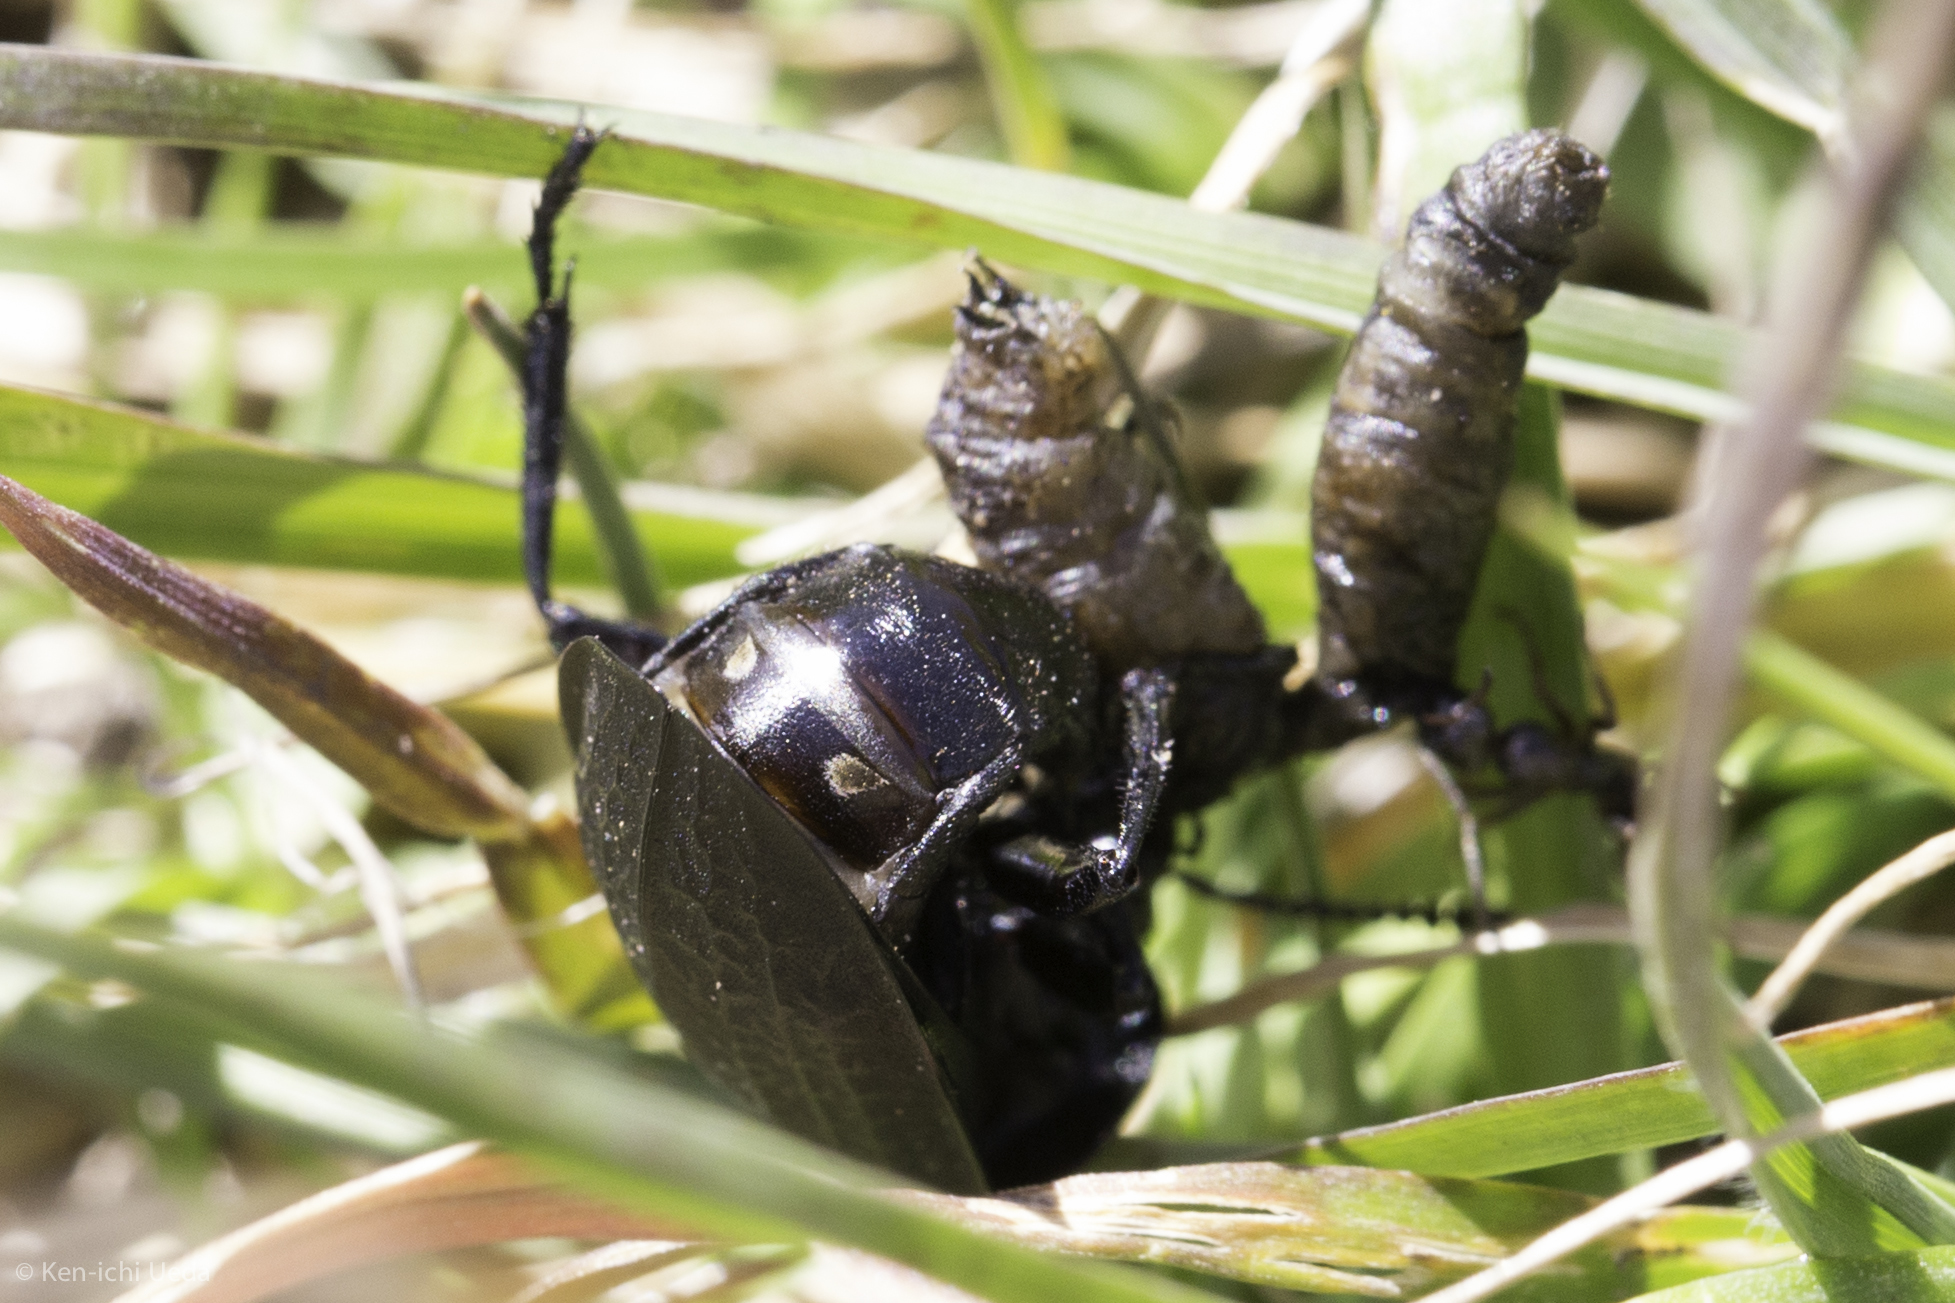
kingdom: Animalia
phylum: Arthropoda
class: Insecta
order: Coleoptera
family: Staphylinidae
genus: Heterosilpha
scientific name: Heterosilpha ramosa
